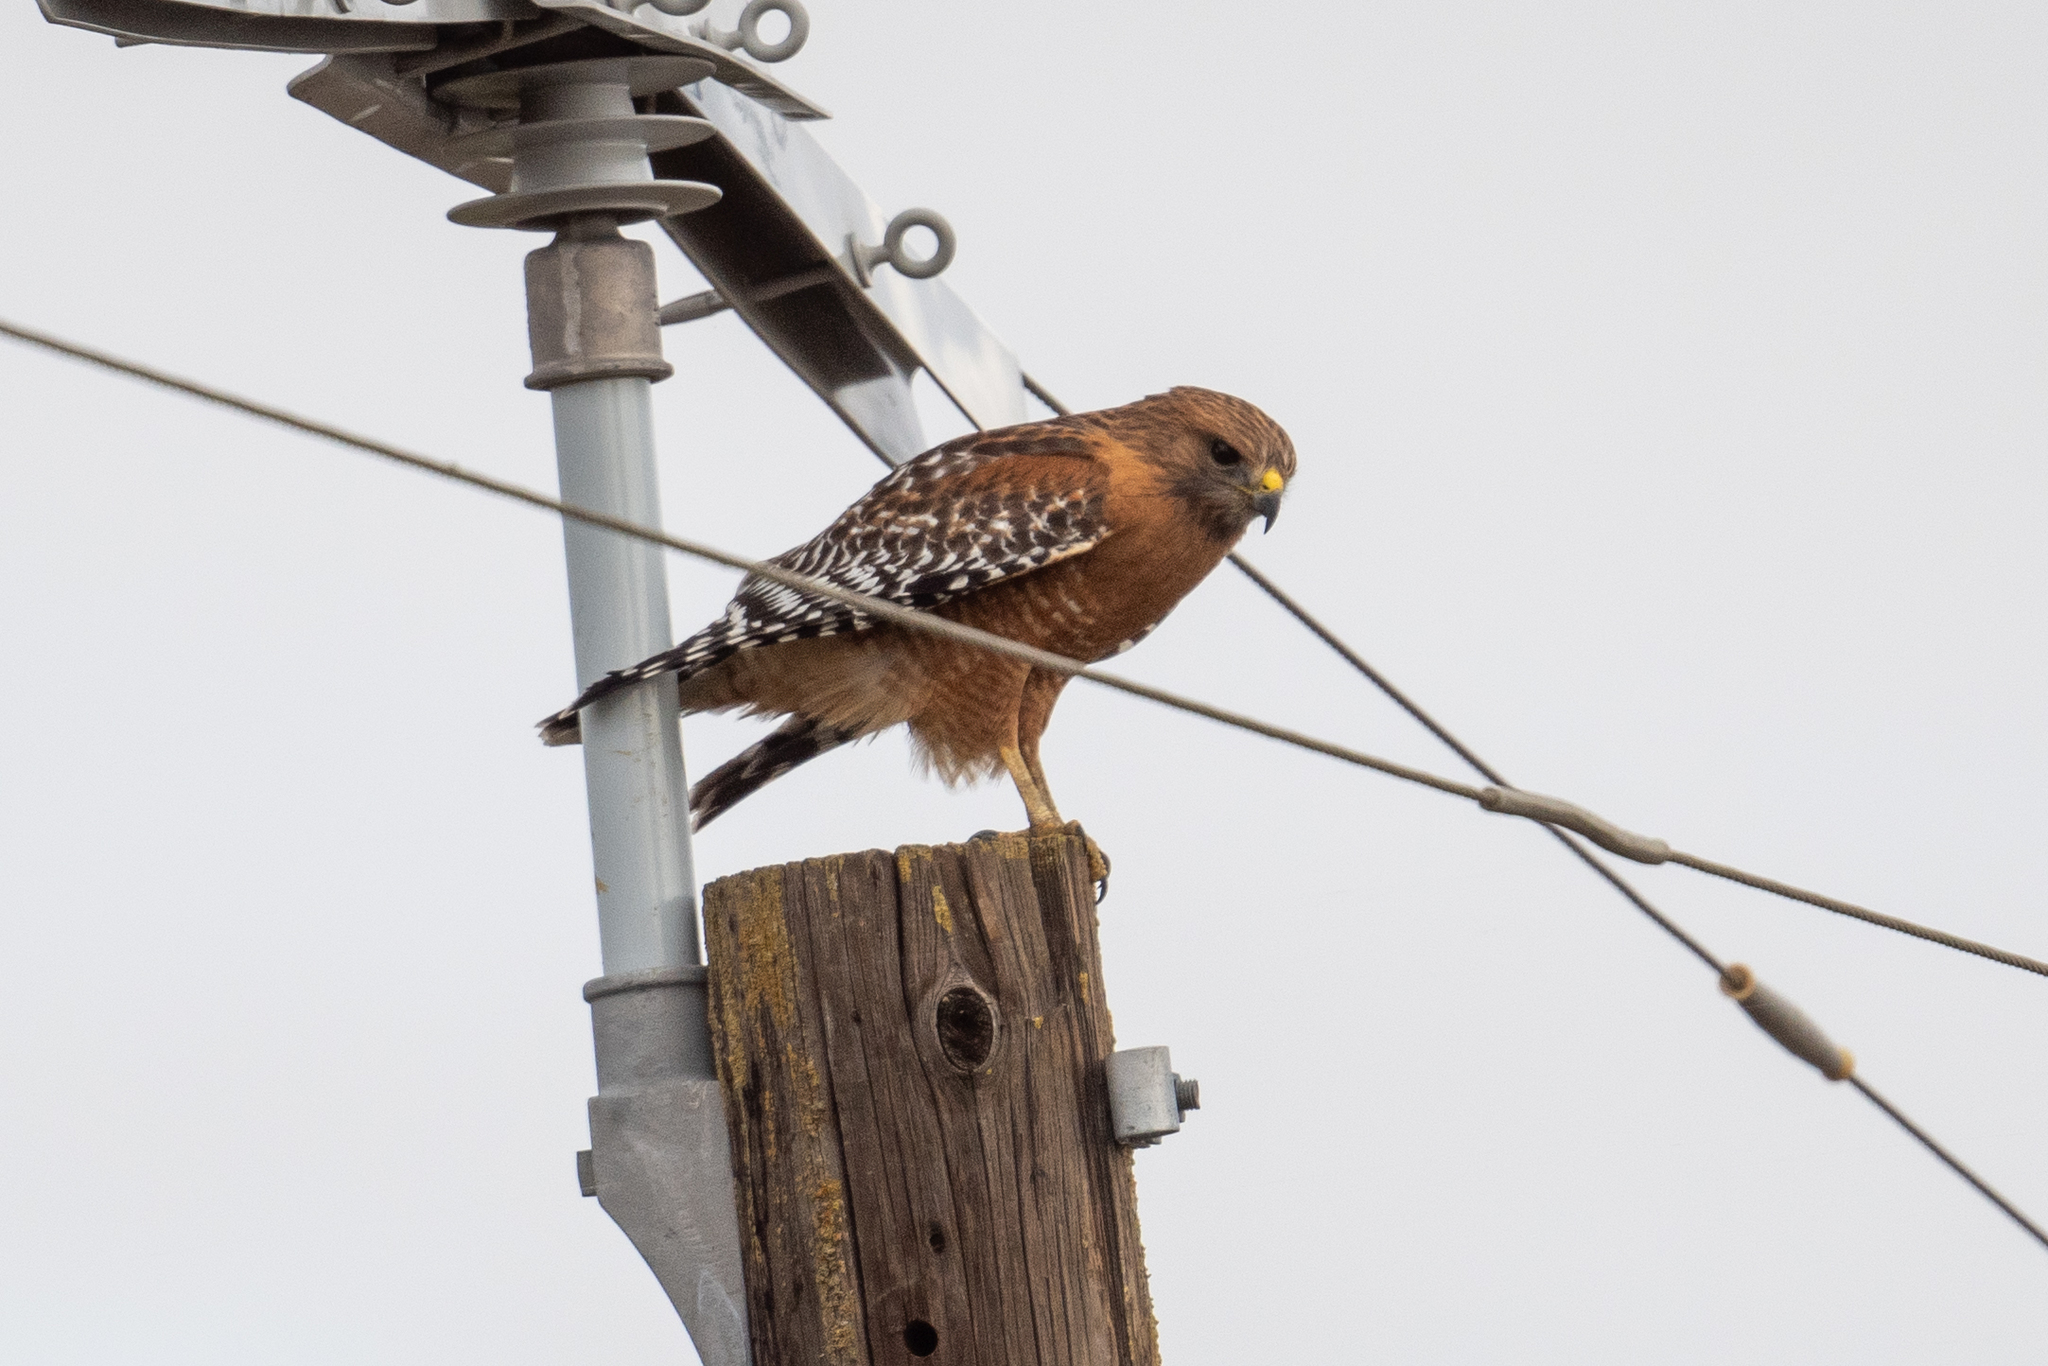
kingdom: Animalia
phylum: Chordata
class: Aves
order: Accipitriformes
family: Accipitridae
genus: Buteo
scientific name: Buteo lineatus
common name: Red-shouldered hawk
